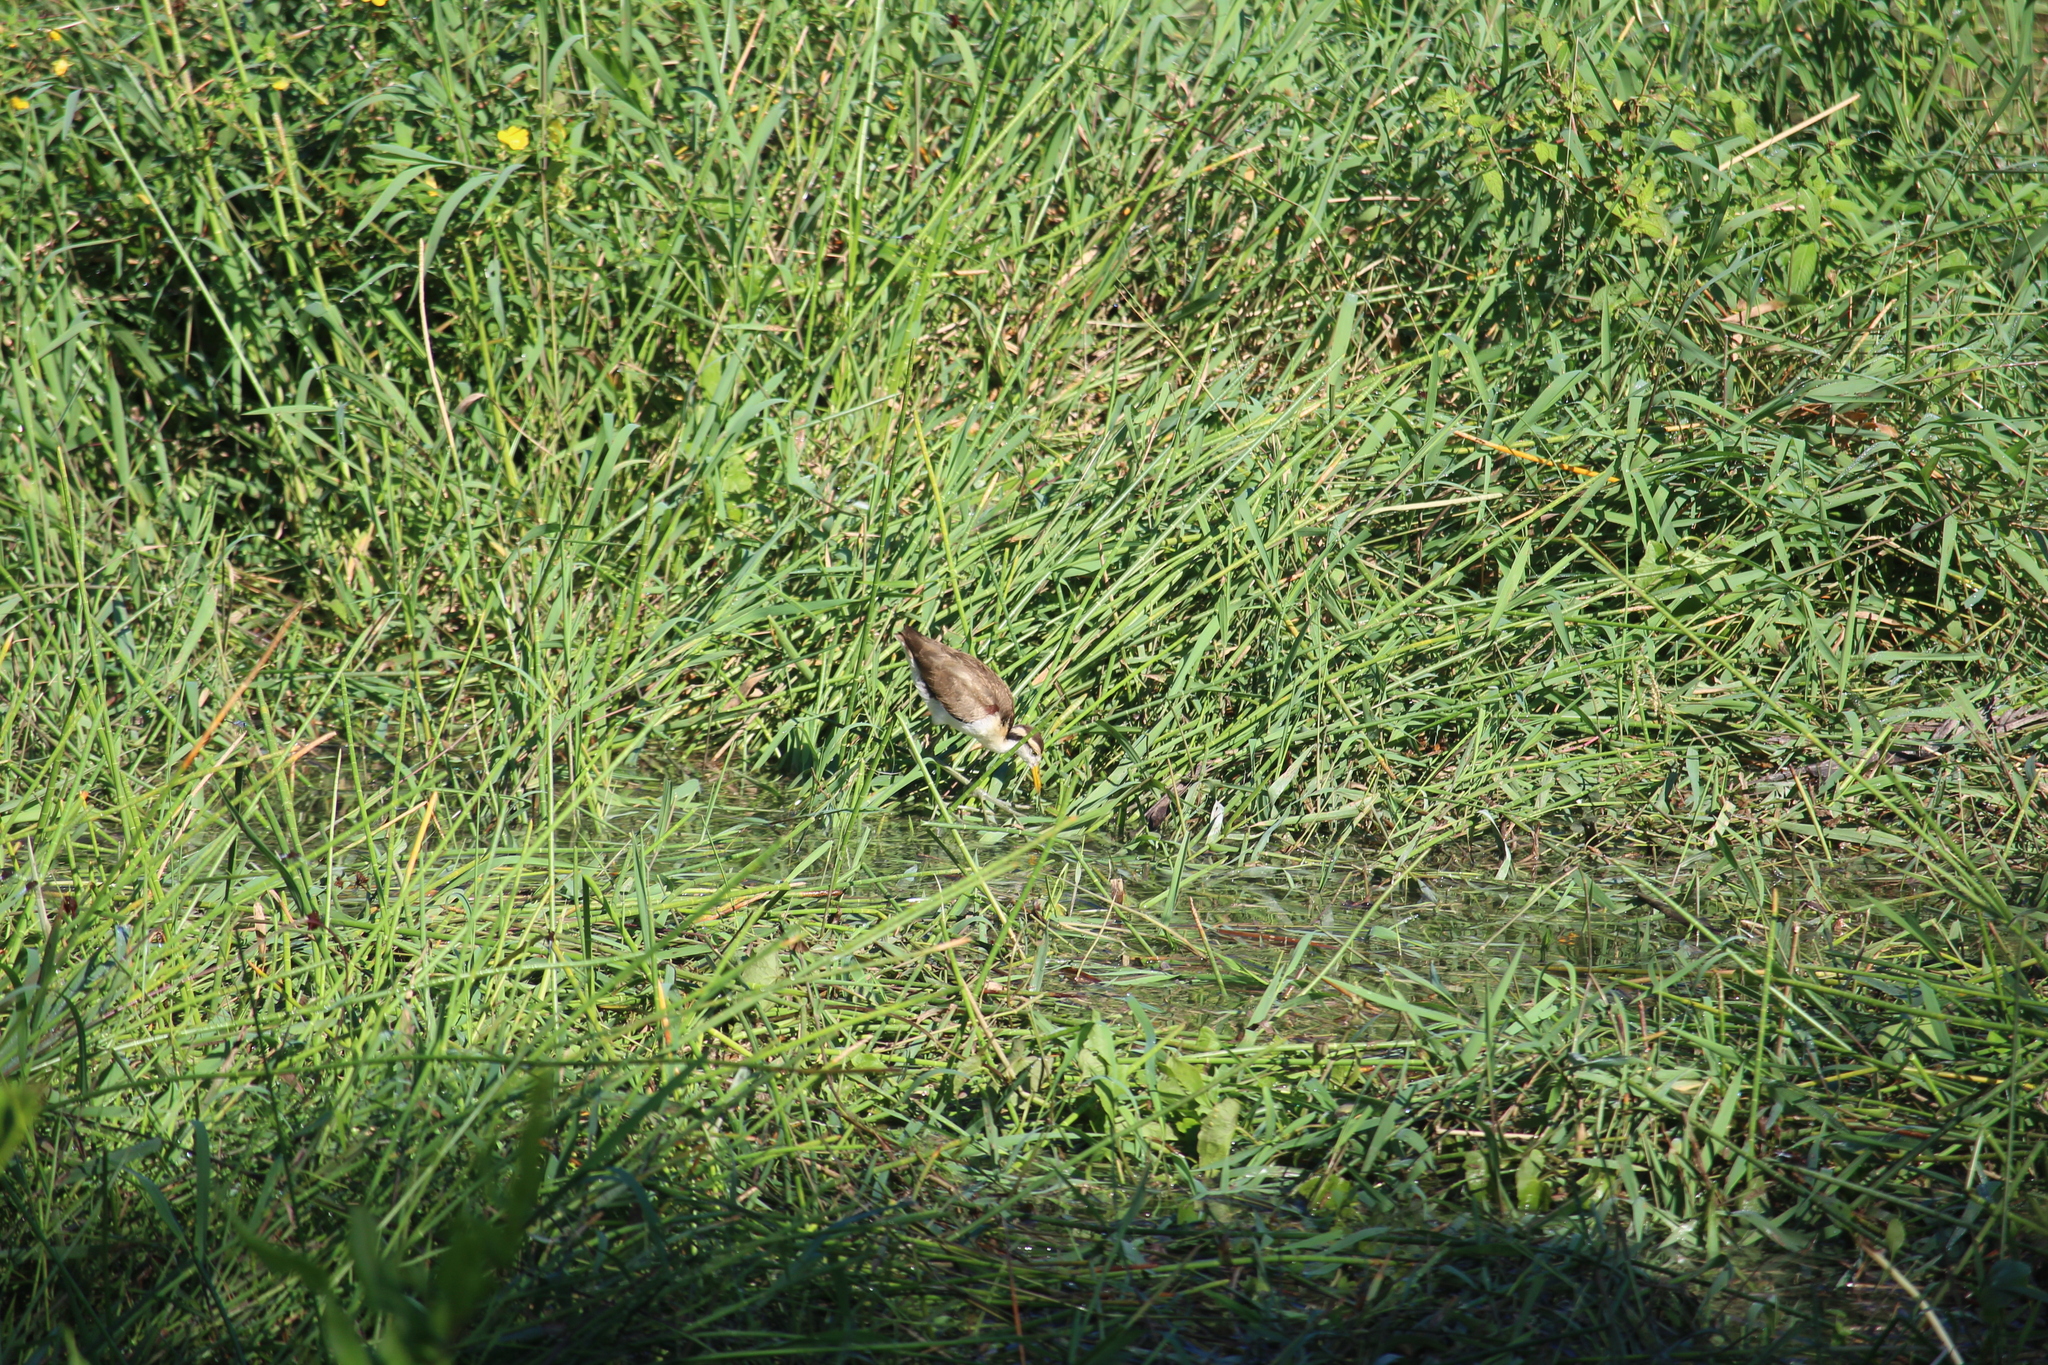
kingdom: Animalia
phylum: Chordata
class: Aves
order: Charadriiformes
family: Jacanidae
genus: Jacana
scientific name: Jacana spinosa
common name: Northern jacana
